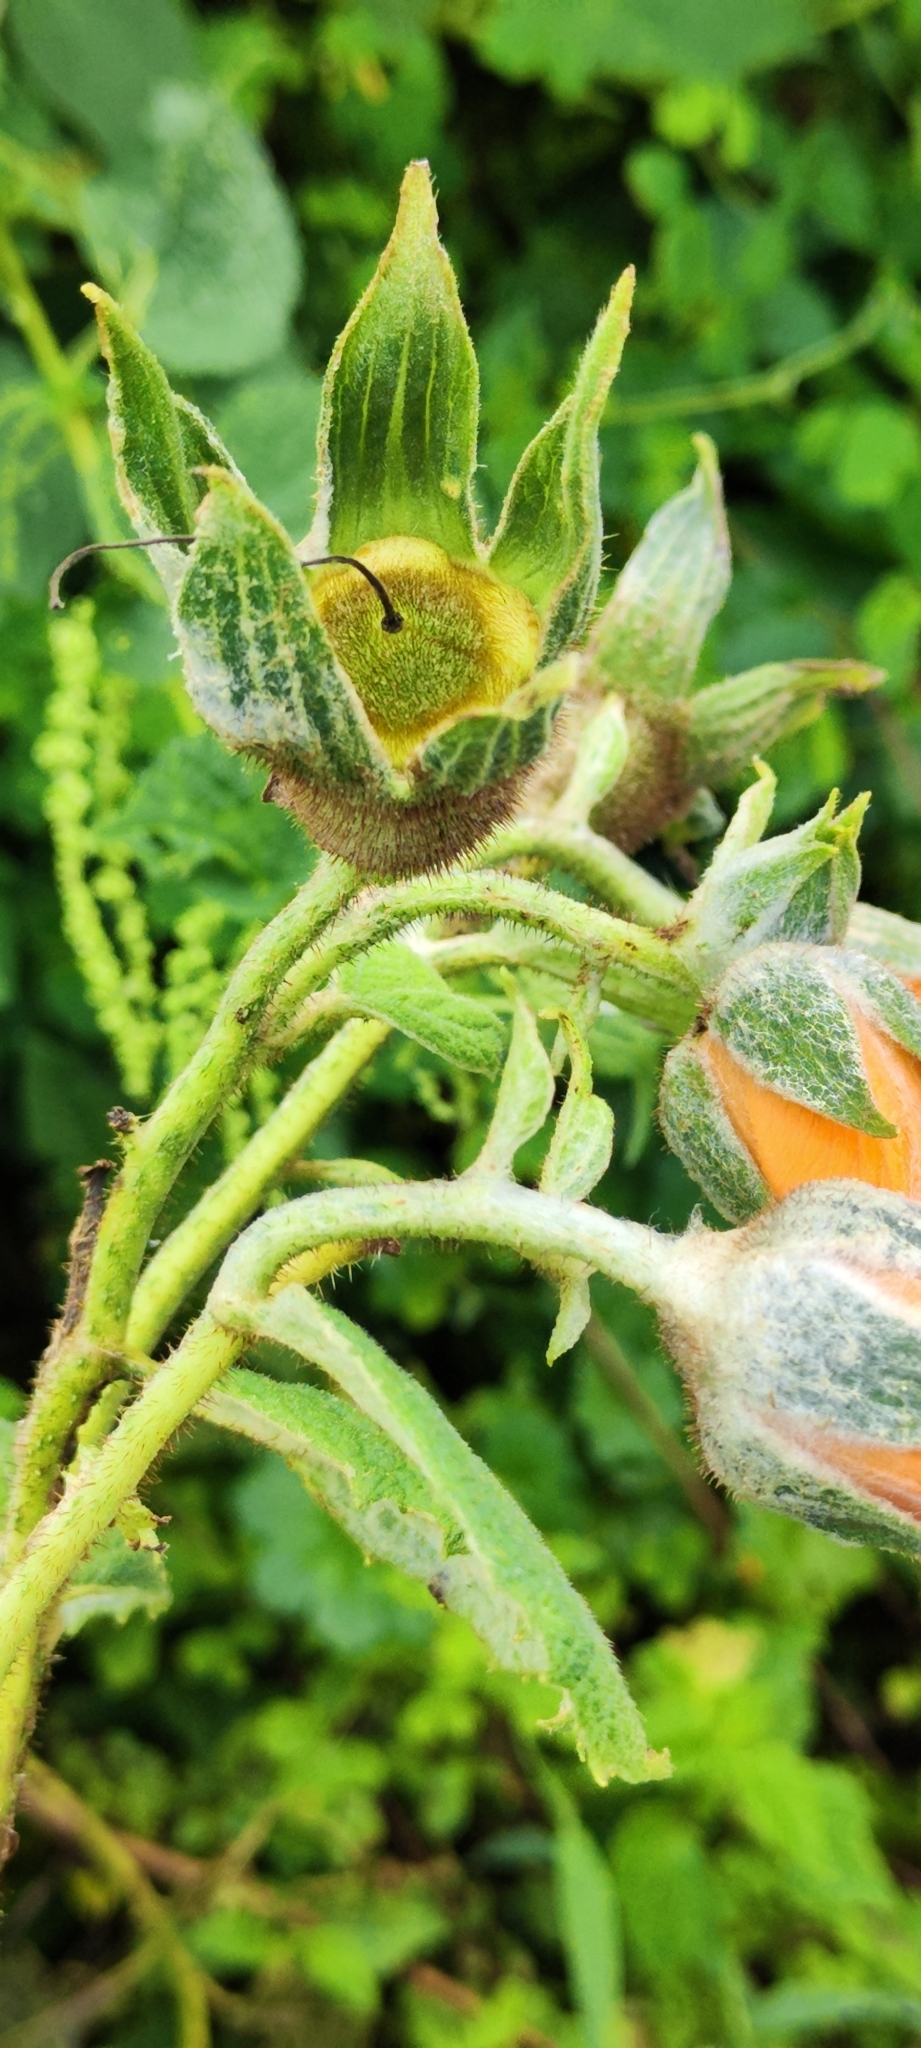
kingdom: Plantae
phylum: Tracheophyta
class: Magnoliopsida
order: Cornales
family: Loasaceae
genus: Nasa
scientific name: Nasa weberbaueri
